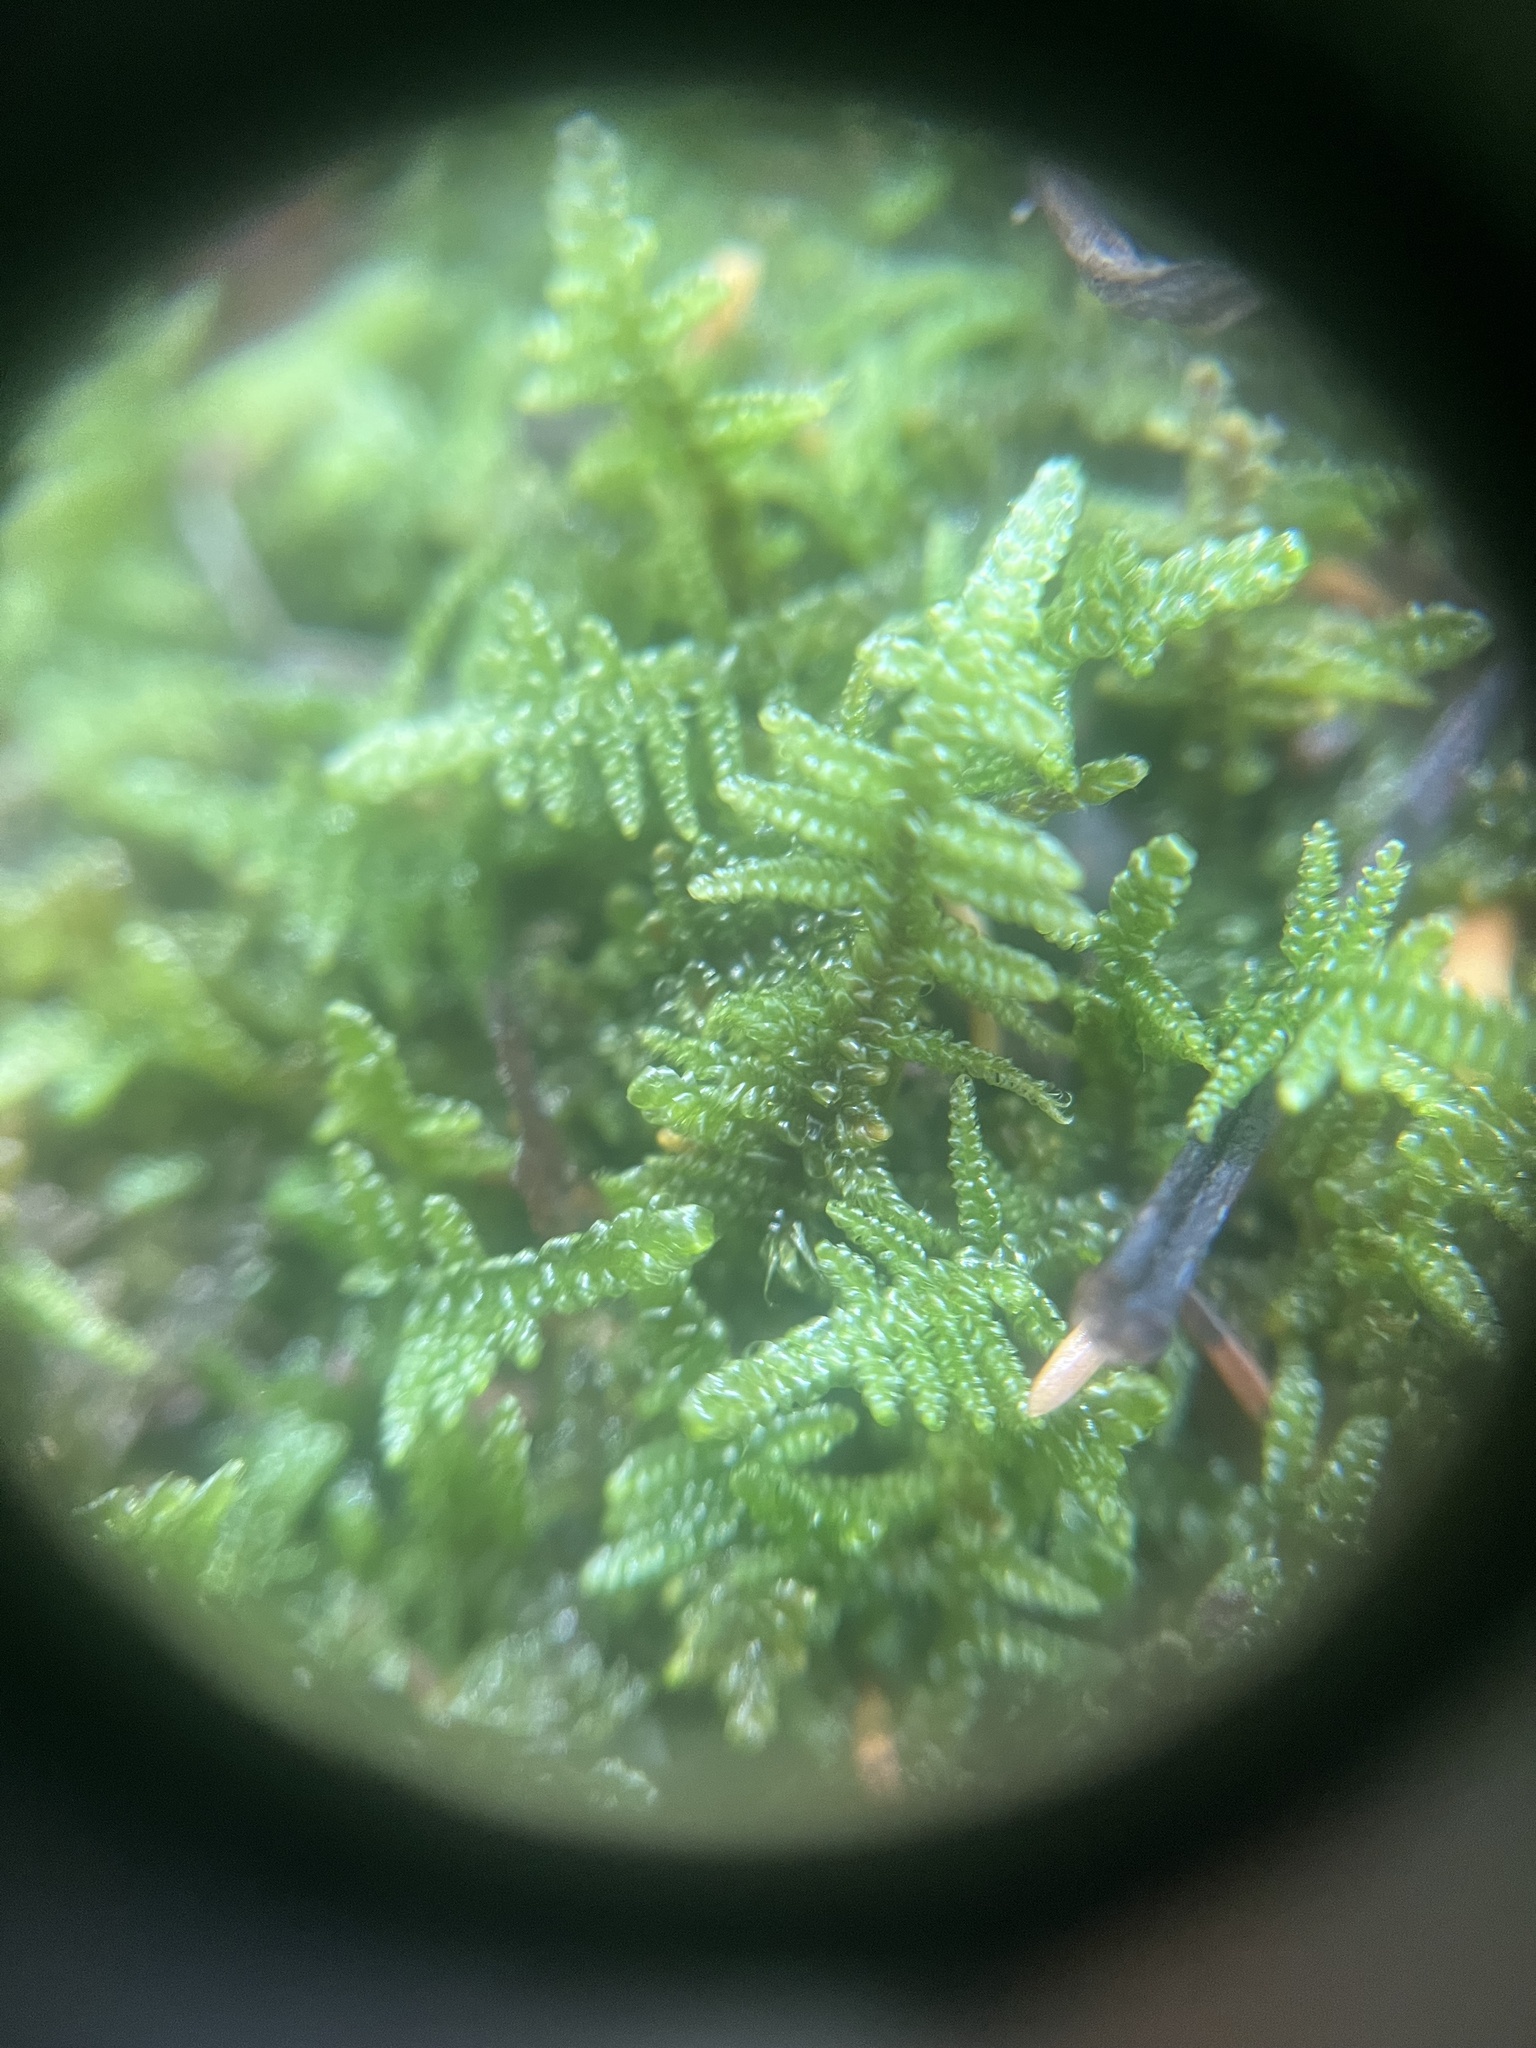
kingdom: Plantae
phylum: Bryophyta
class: Bryopsida
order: Hypnales
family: Callicladiaceae
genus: Callicladium
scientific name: Callicladium imponens
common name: Brocade moss
